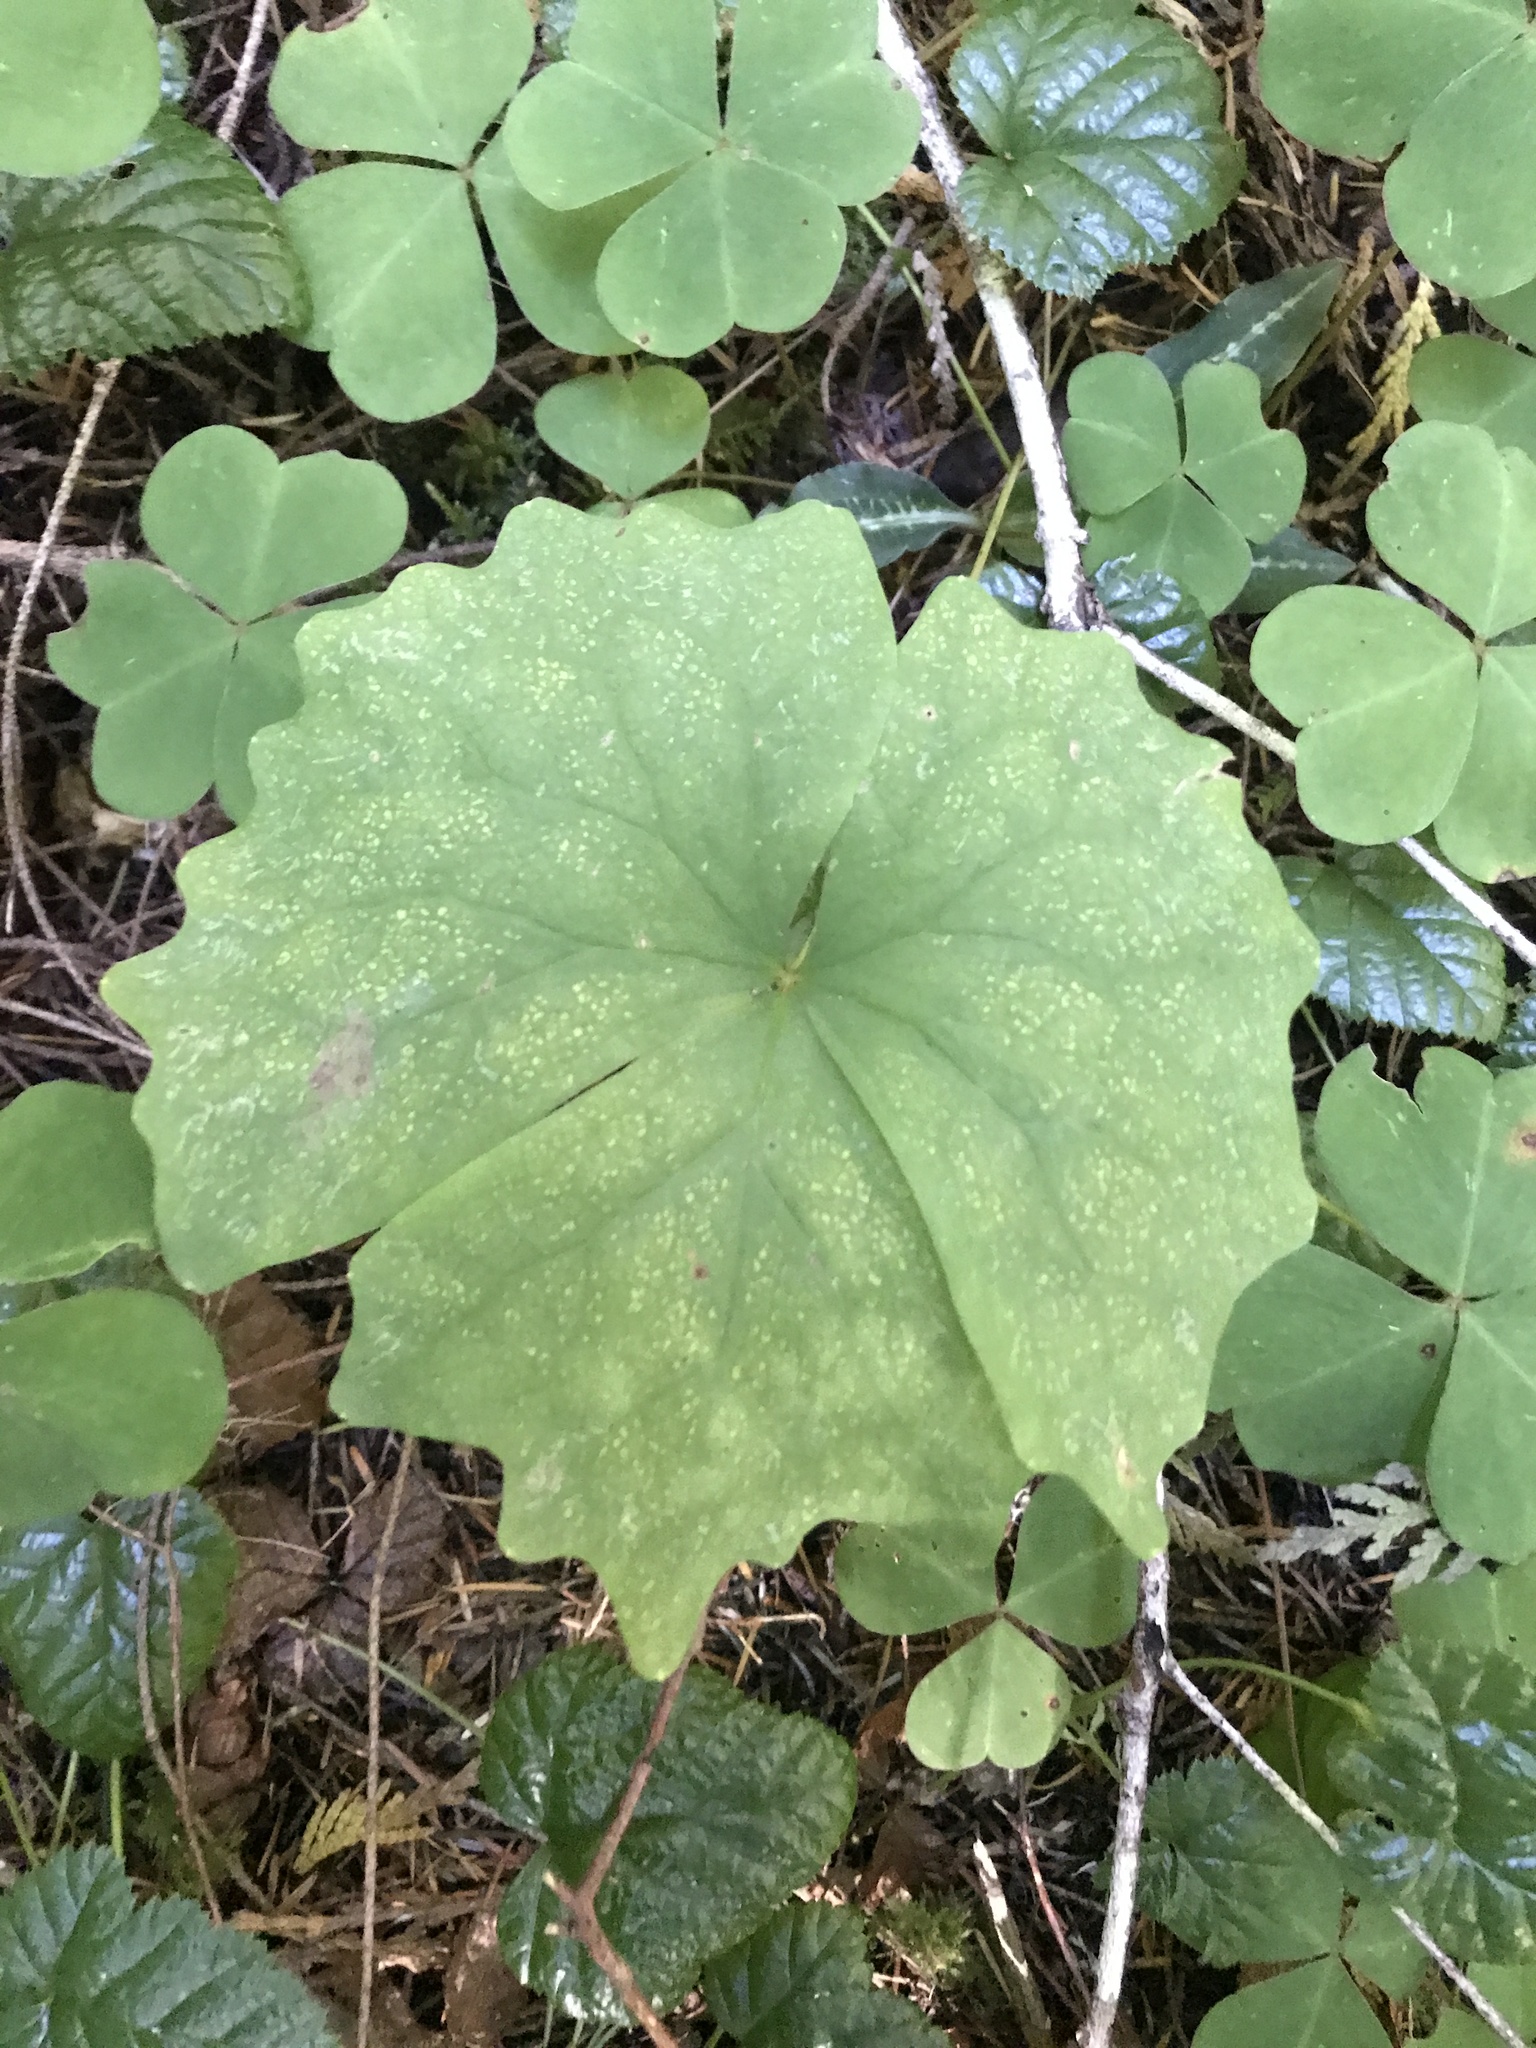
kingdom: Plantae
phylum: Tracheophyta
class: Magnoliopsida
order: Ranunculales
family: Berberidaceae
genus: Achlys
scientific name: Achlys triphylla
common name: Vanilla-leaf
